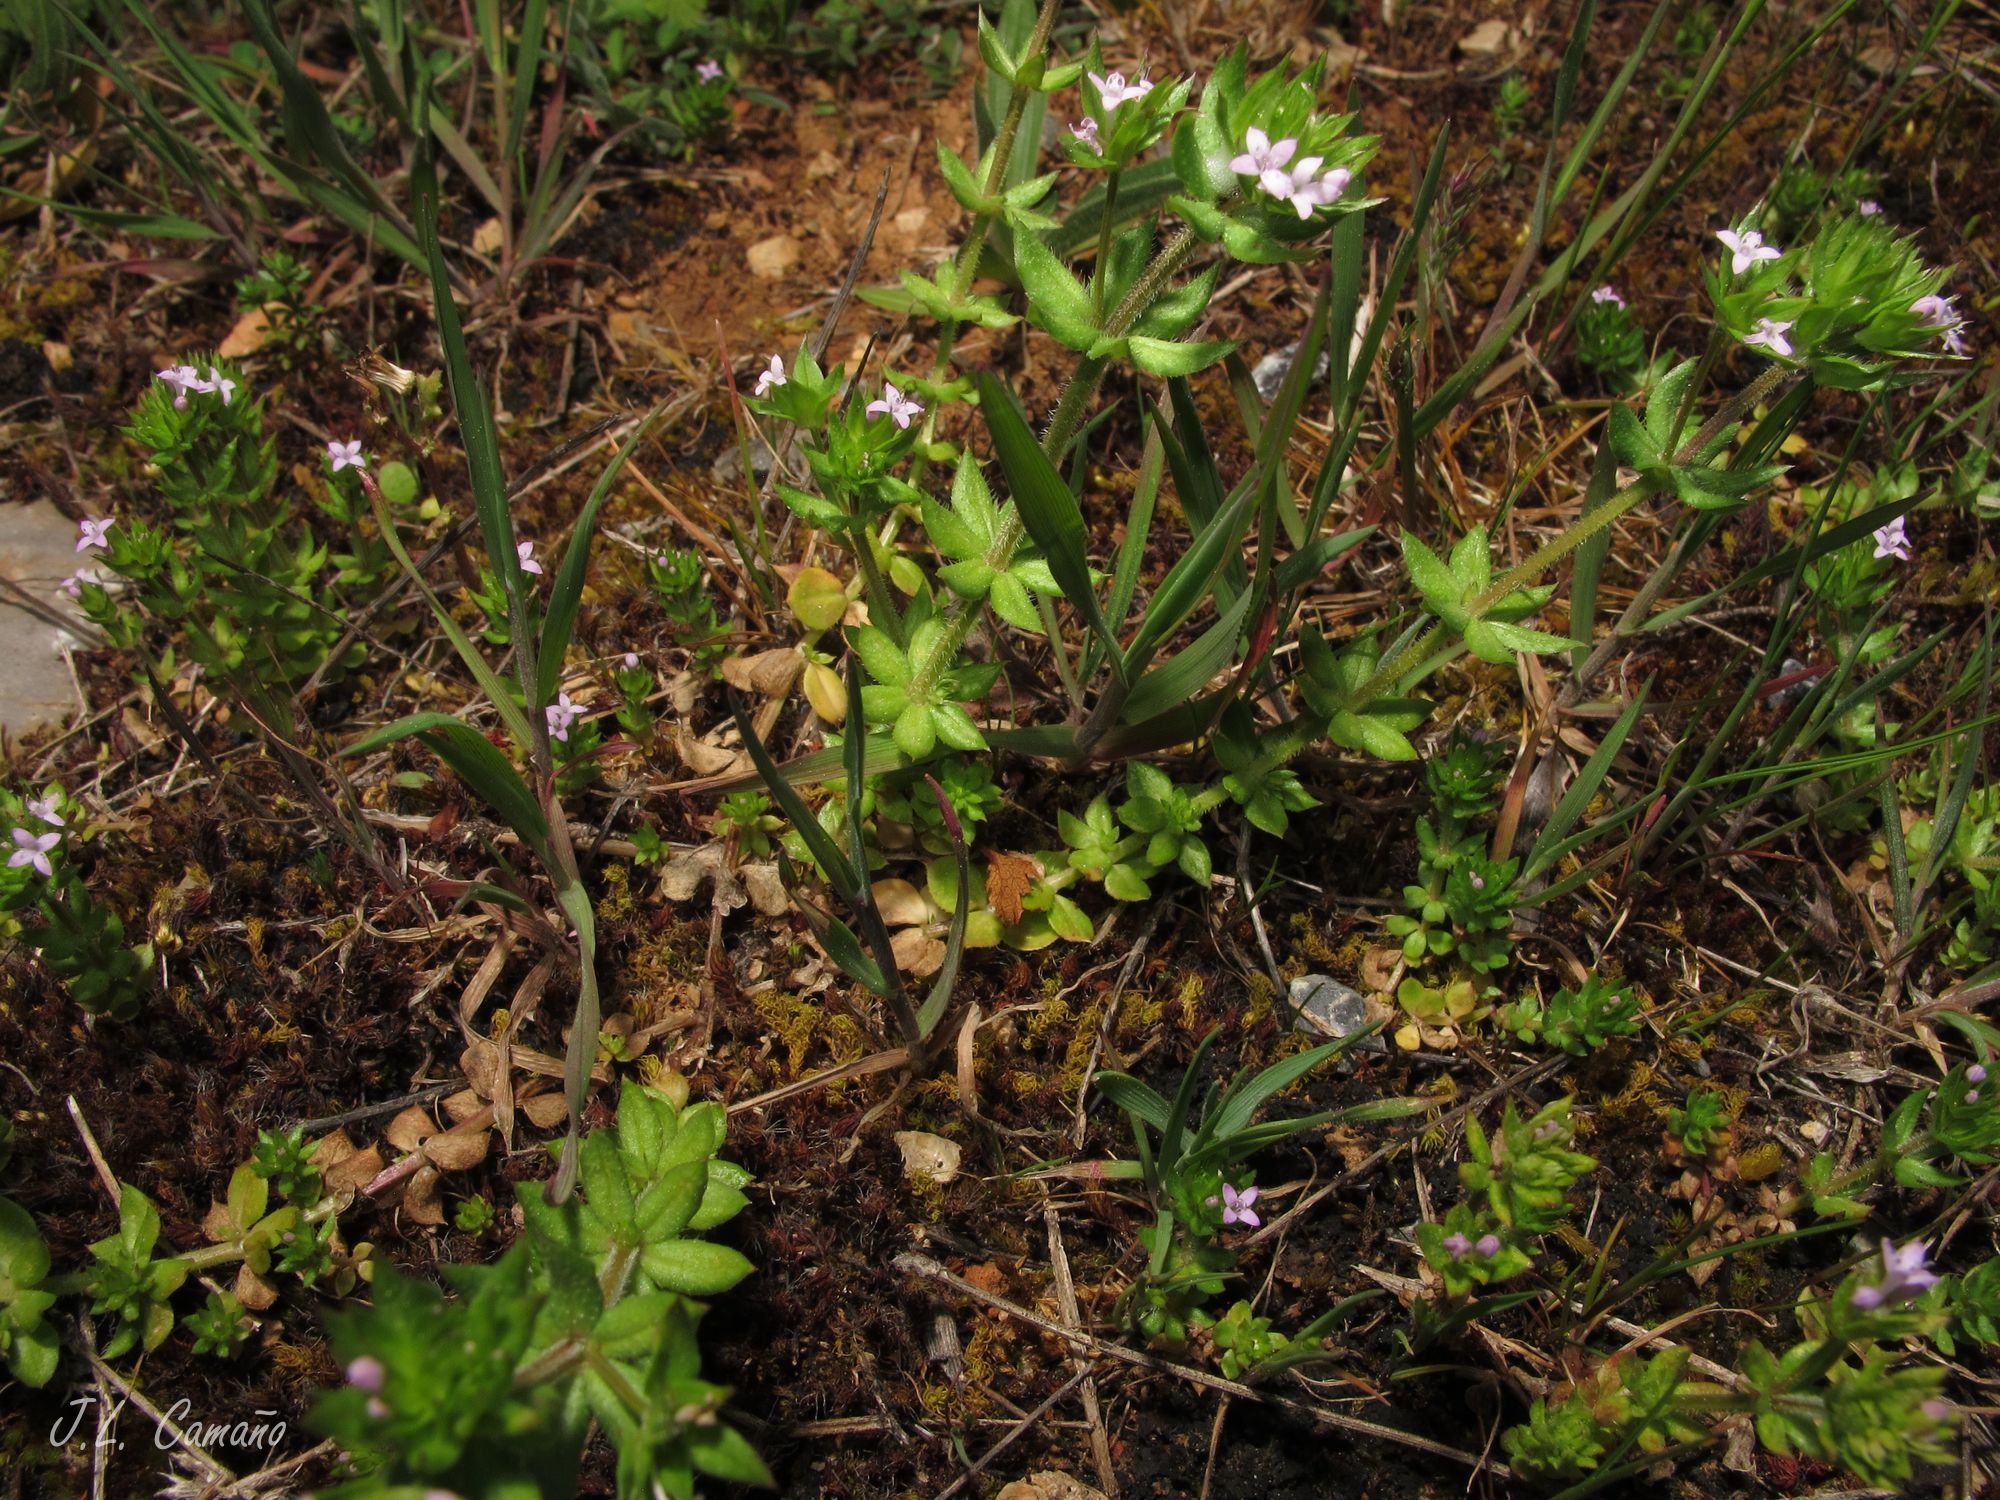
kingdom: Plantae
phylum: Tracheophyta
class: Magnoliopsida
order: Gentianales
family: Rubiaceae
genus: Sherardia
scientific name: Sherardia arvensis
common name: Field madder
